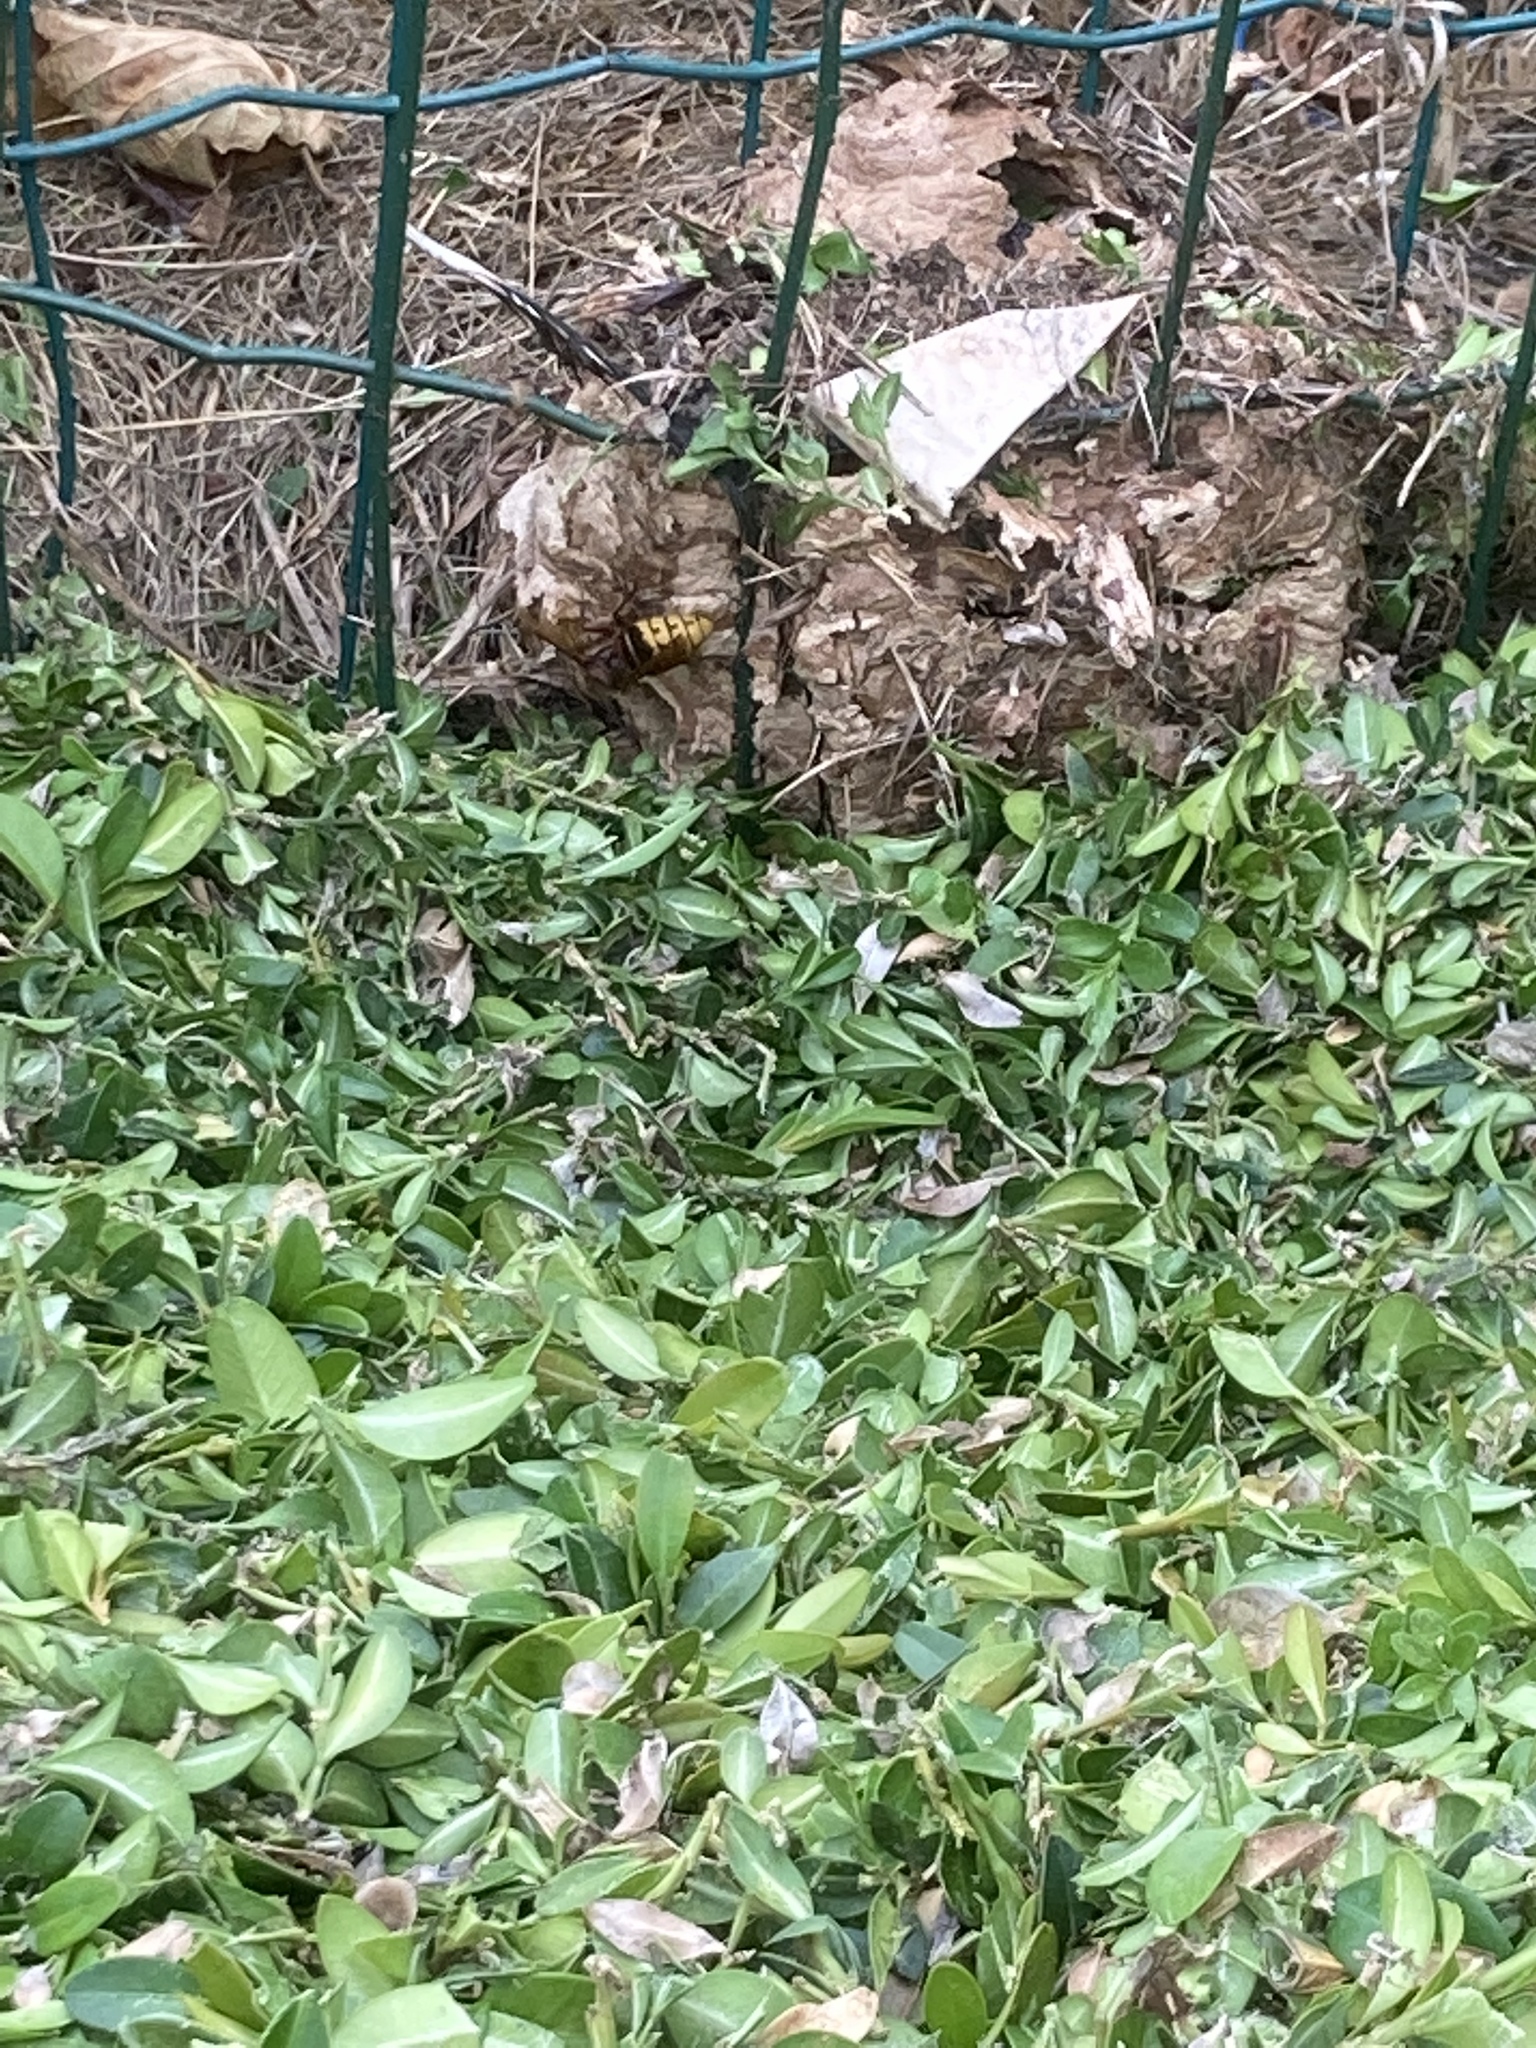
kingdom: Animalia
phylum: Arthropoda
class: Insecta
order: Hymenoptera
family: Vespidae
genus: Vespa
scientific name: Vespa crabro
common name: Hornet
